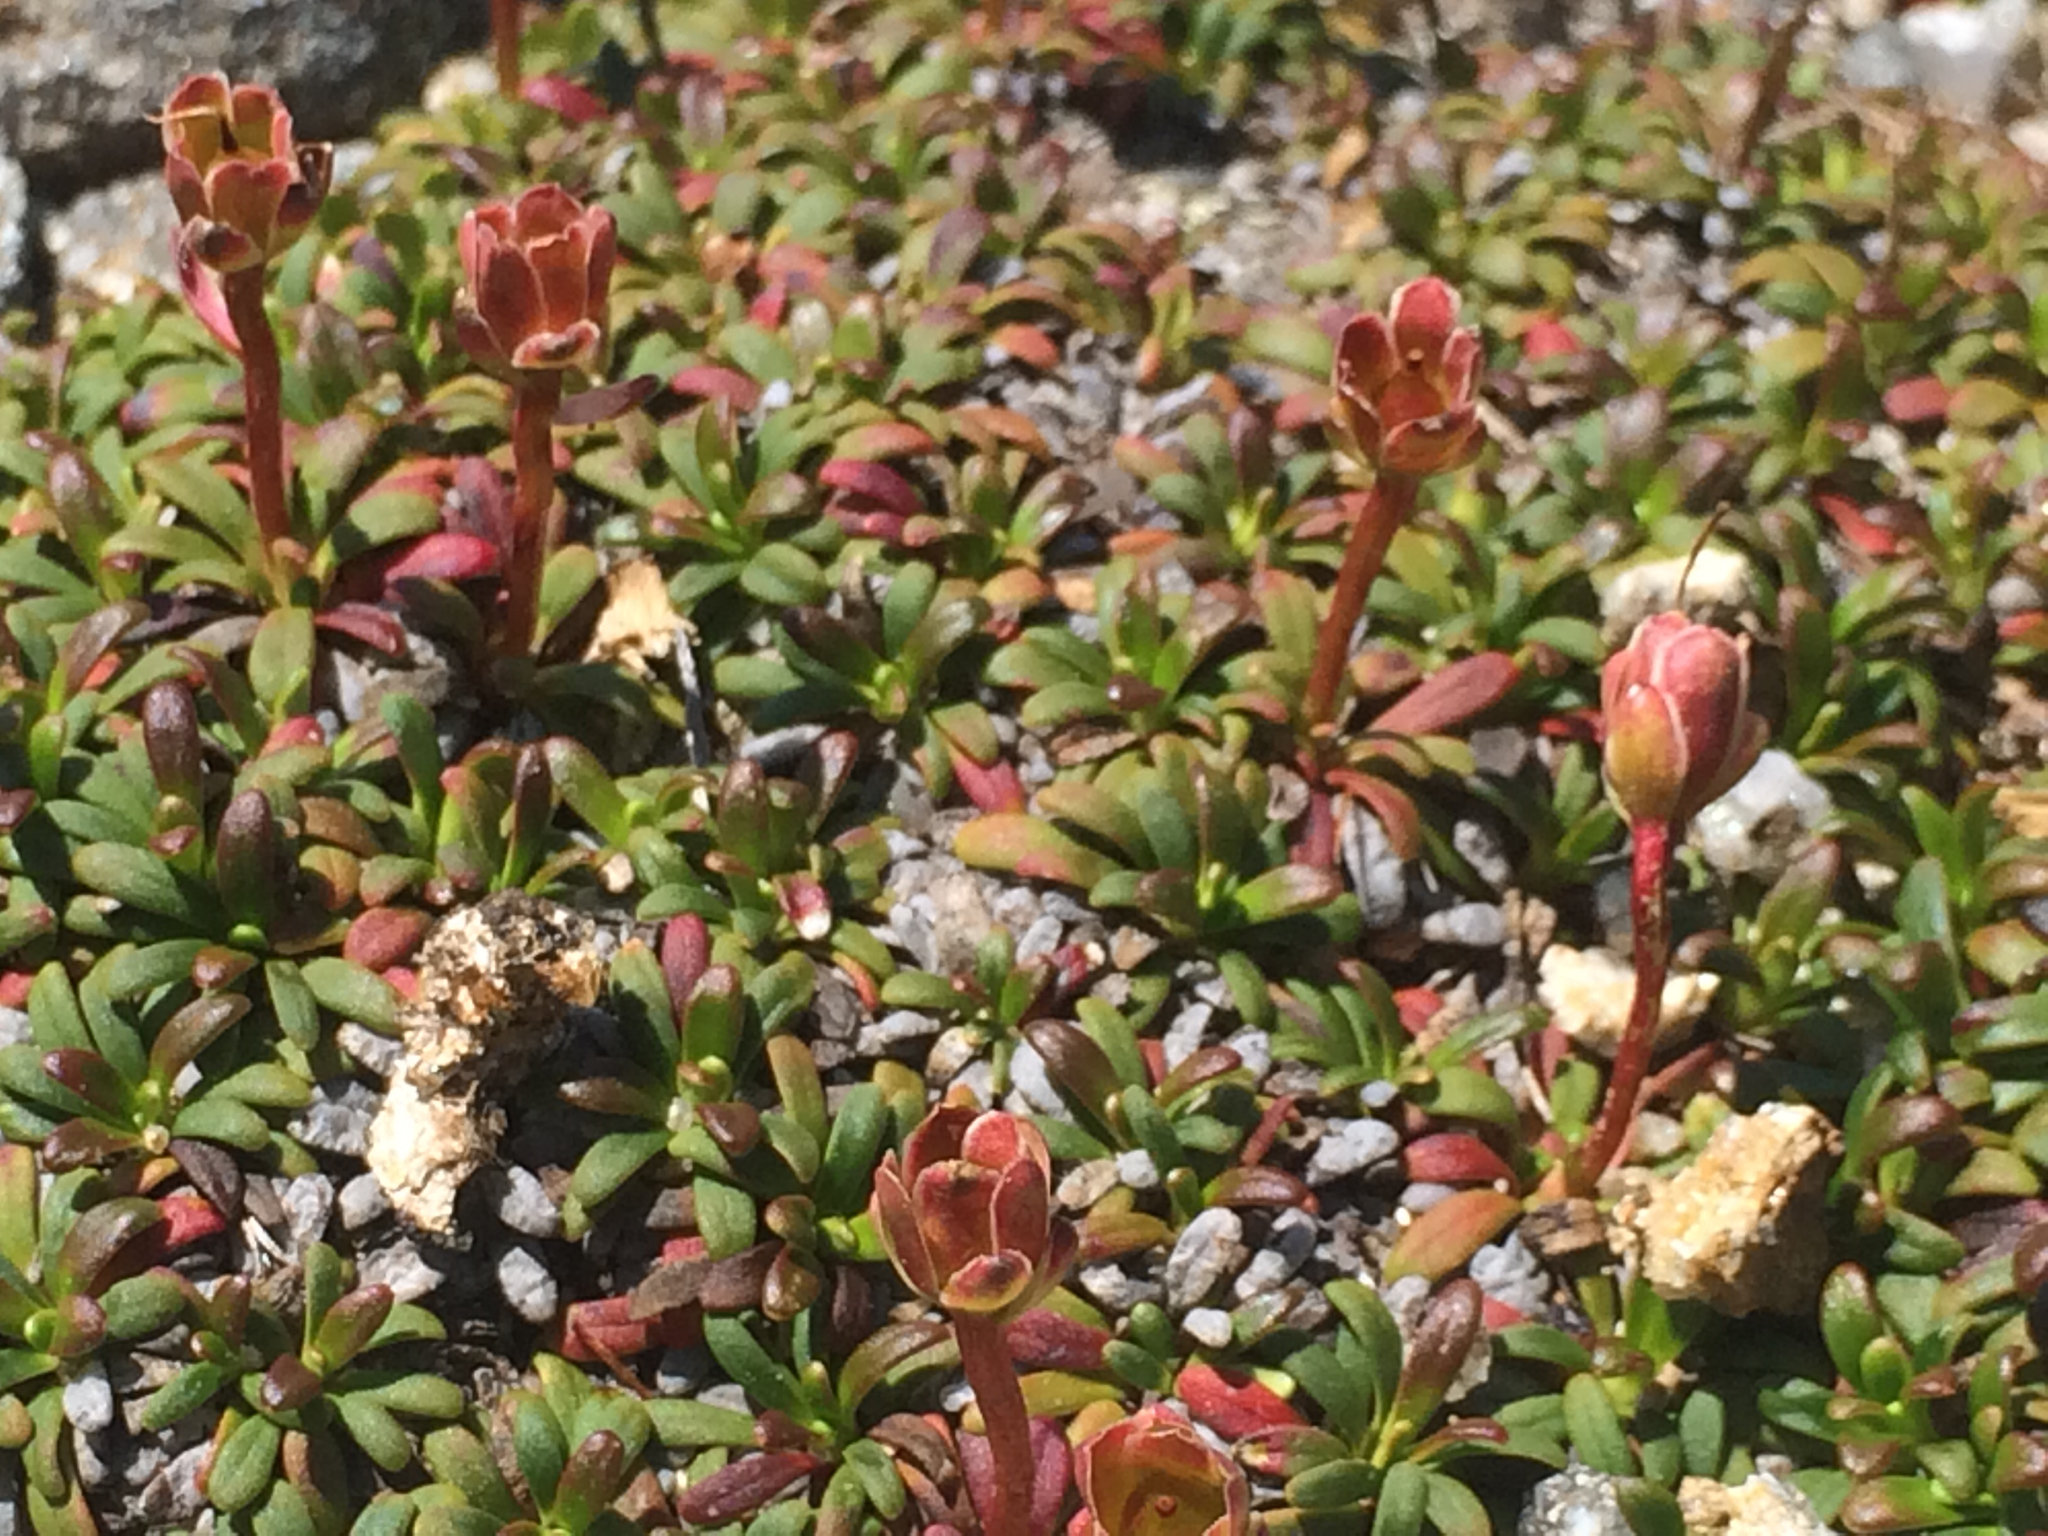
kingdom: Plantae
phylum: Tracheophyta
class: Magnoliopsida
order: Ericales
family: Diapensiaceae
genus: Diapensia
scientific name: Diapensia lapponica
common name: Diapensia
